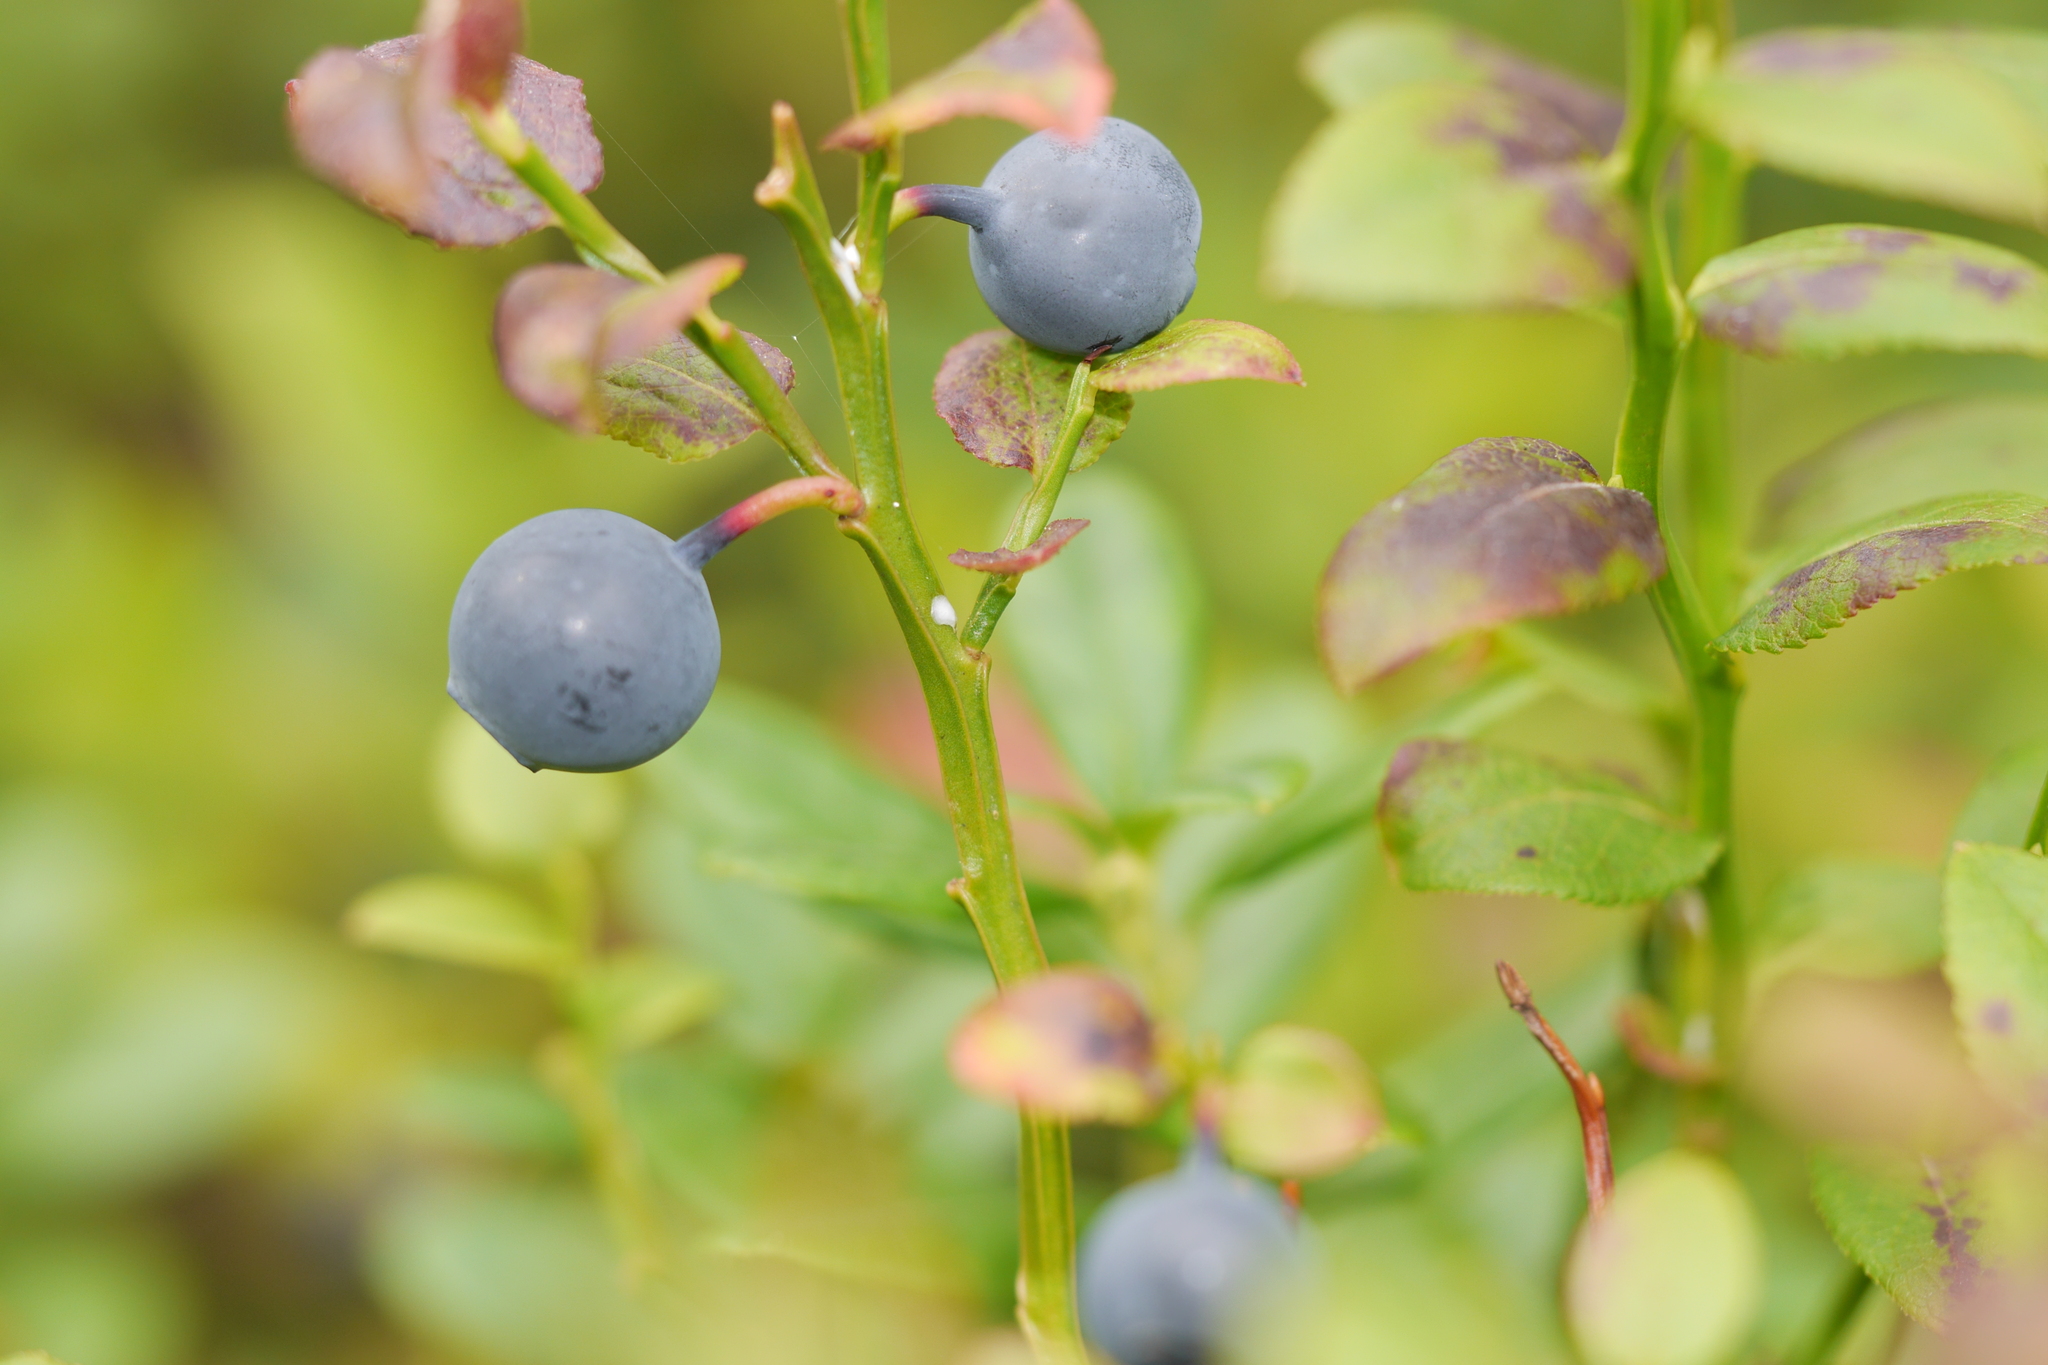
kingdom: Plantae
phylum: Tracheophyta
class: Magnoliopsida
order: Ericales
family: Ericaceae
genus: Vaccinium
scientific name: Vaccinium myrtillus
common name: Bilberry
